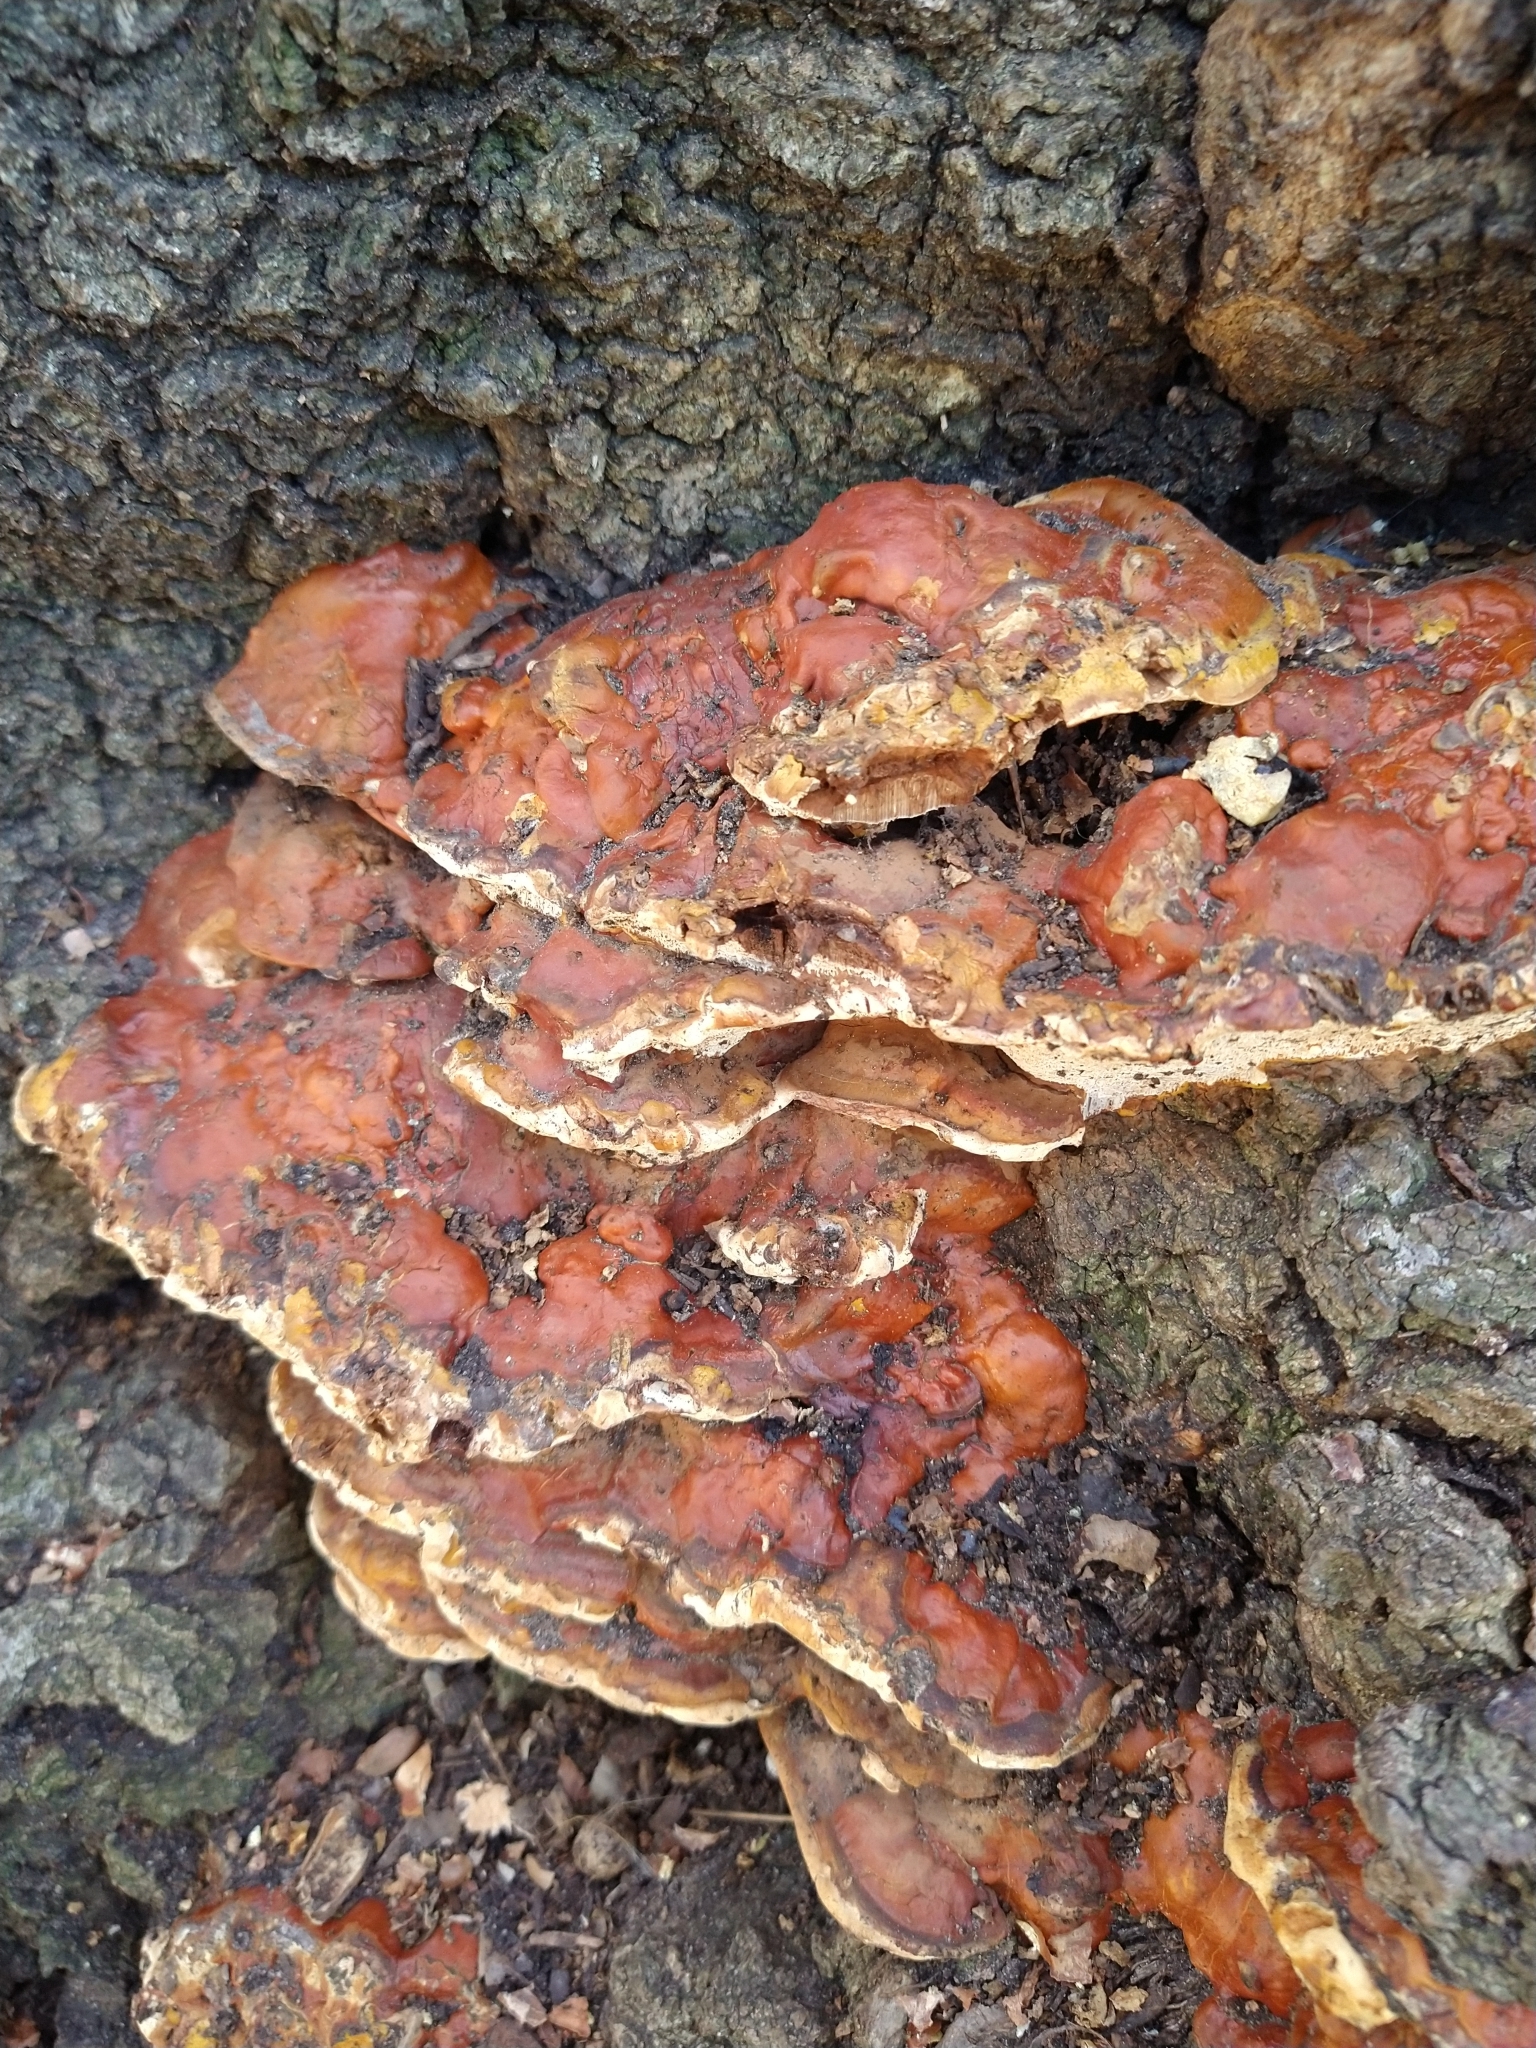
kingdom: Fungi
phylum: Basidiomycota
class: Agaricomycetes
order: Polyporales
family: Polyporaceae
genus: Ganoderma
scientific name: Ganoderma resinaceum
